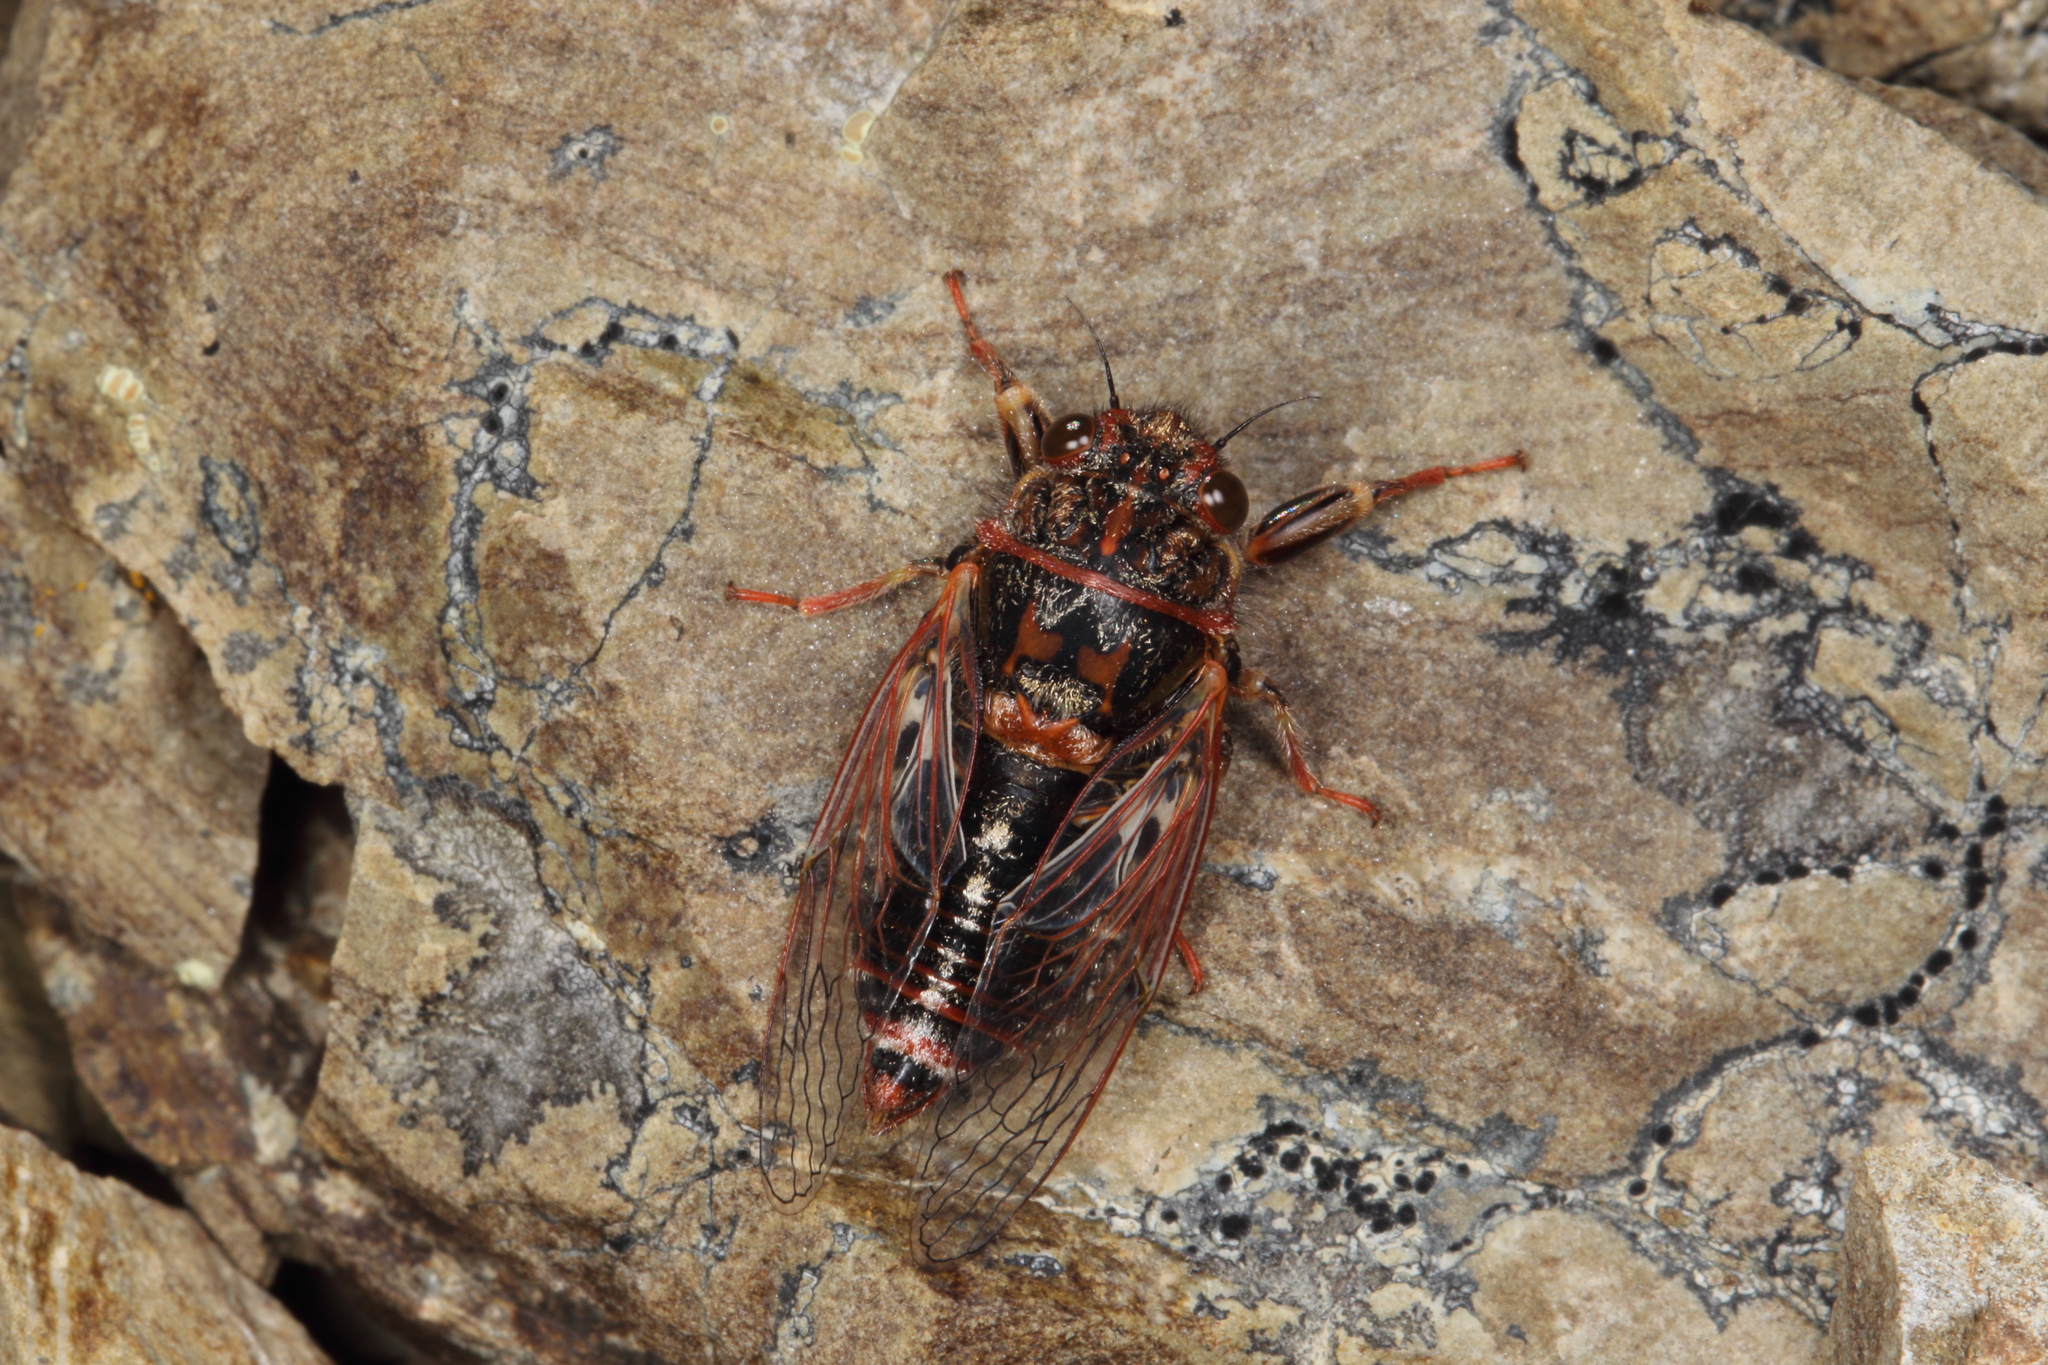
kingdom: Animalia
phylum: Arthropoda
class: Insecta
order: Hemiptera
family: Cicadidae
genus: Maoricicada
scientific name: Maoricicada campbelli
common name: Campbell's cicada
